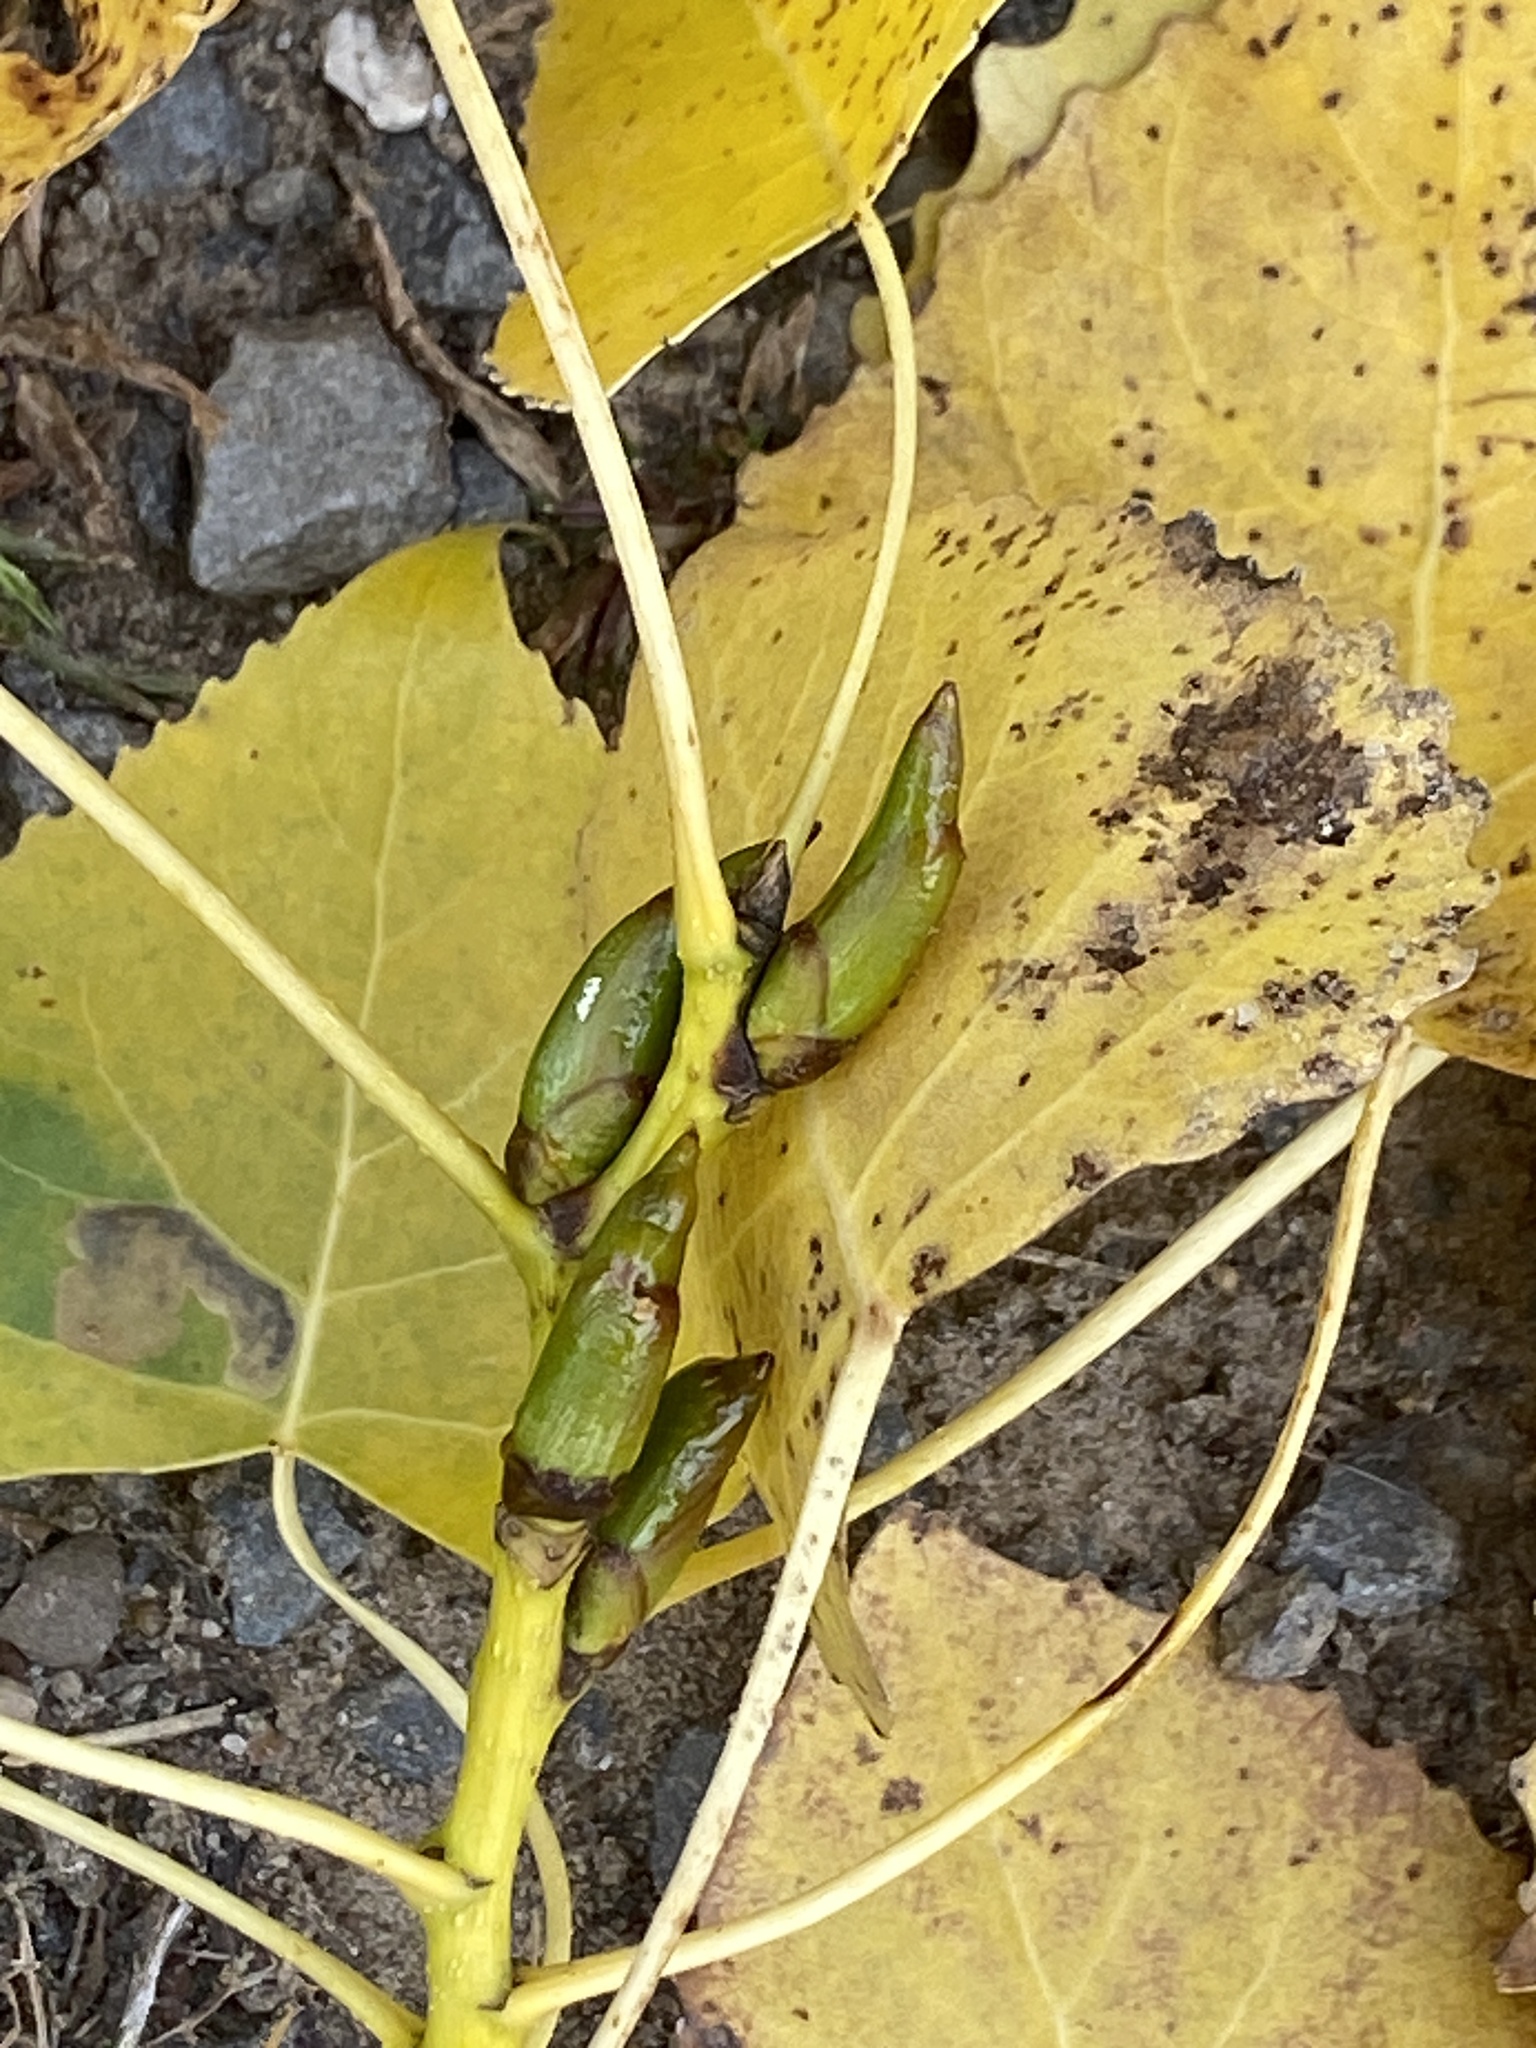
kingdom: Plantae
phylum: Tracheophyta
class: Magnoliopsida
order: Malpighiales
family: Salicaceae
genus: Populus
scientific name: Populus deltoides
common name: Eastern cottonwood
